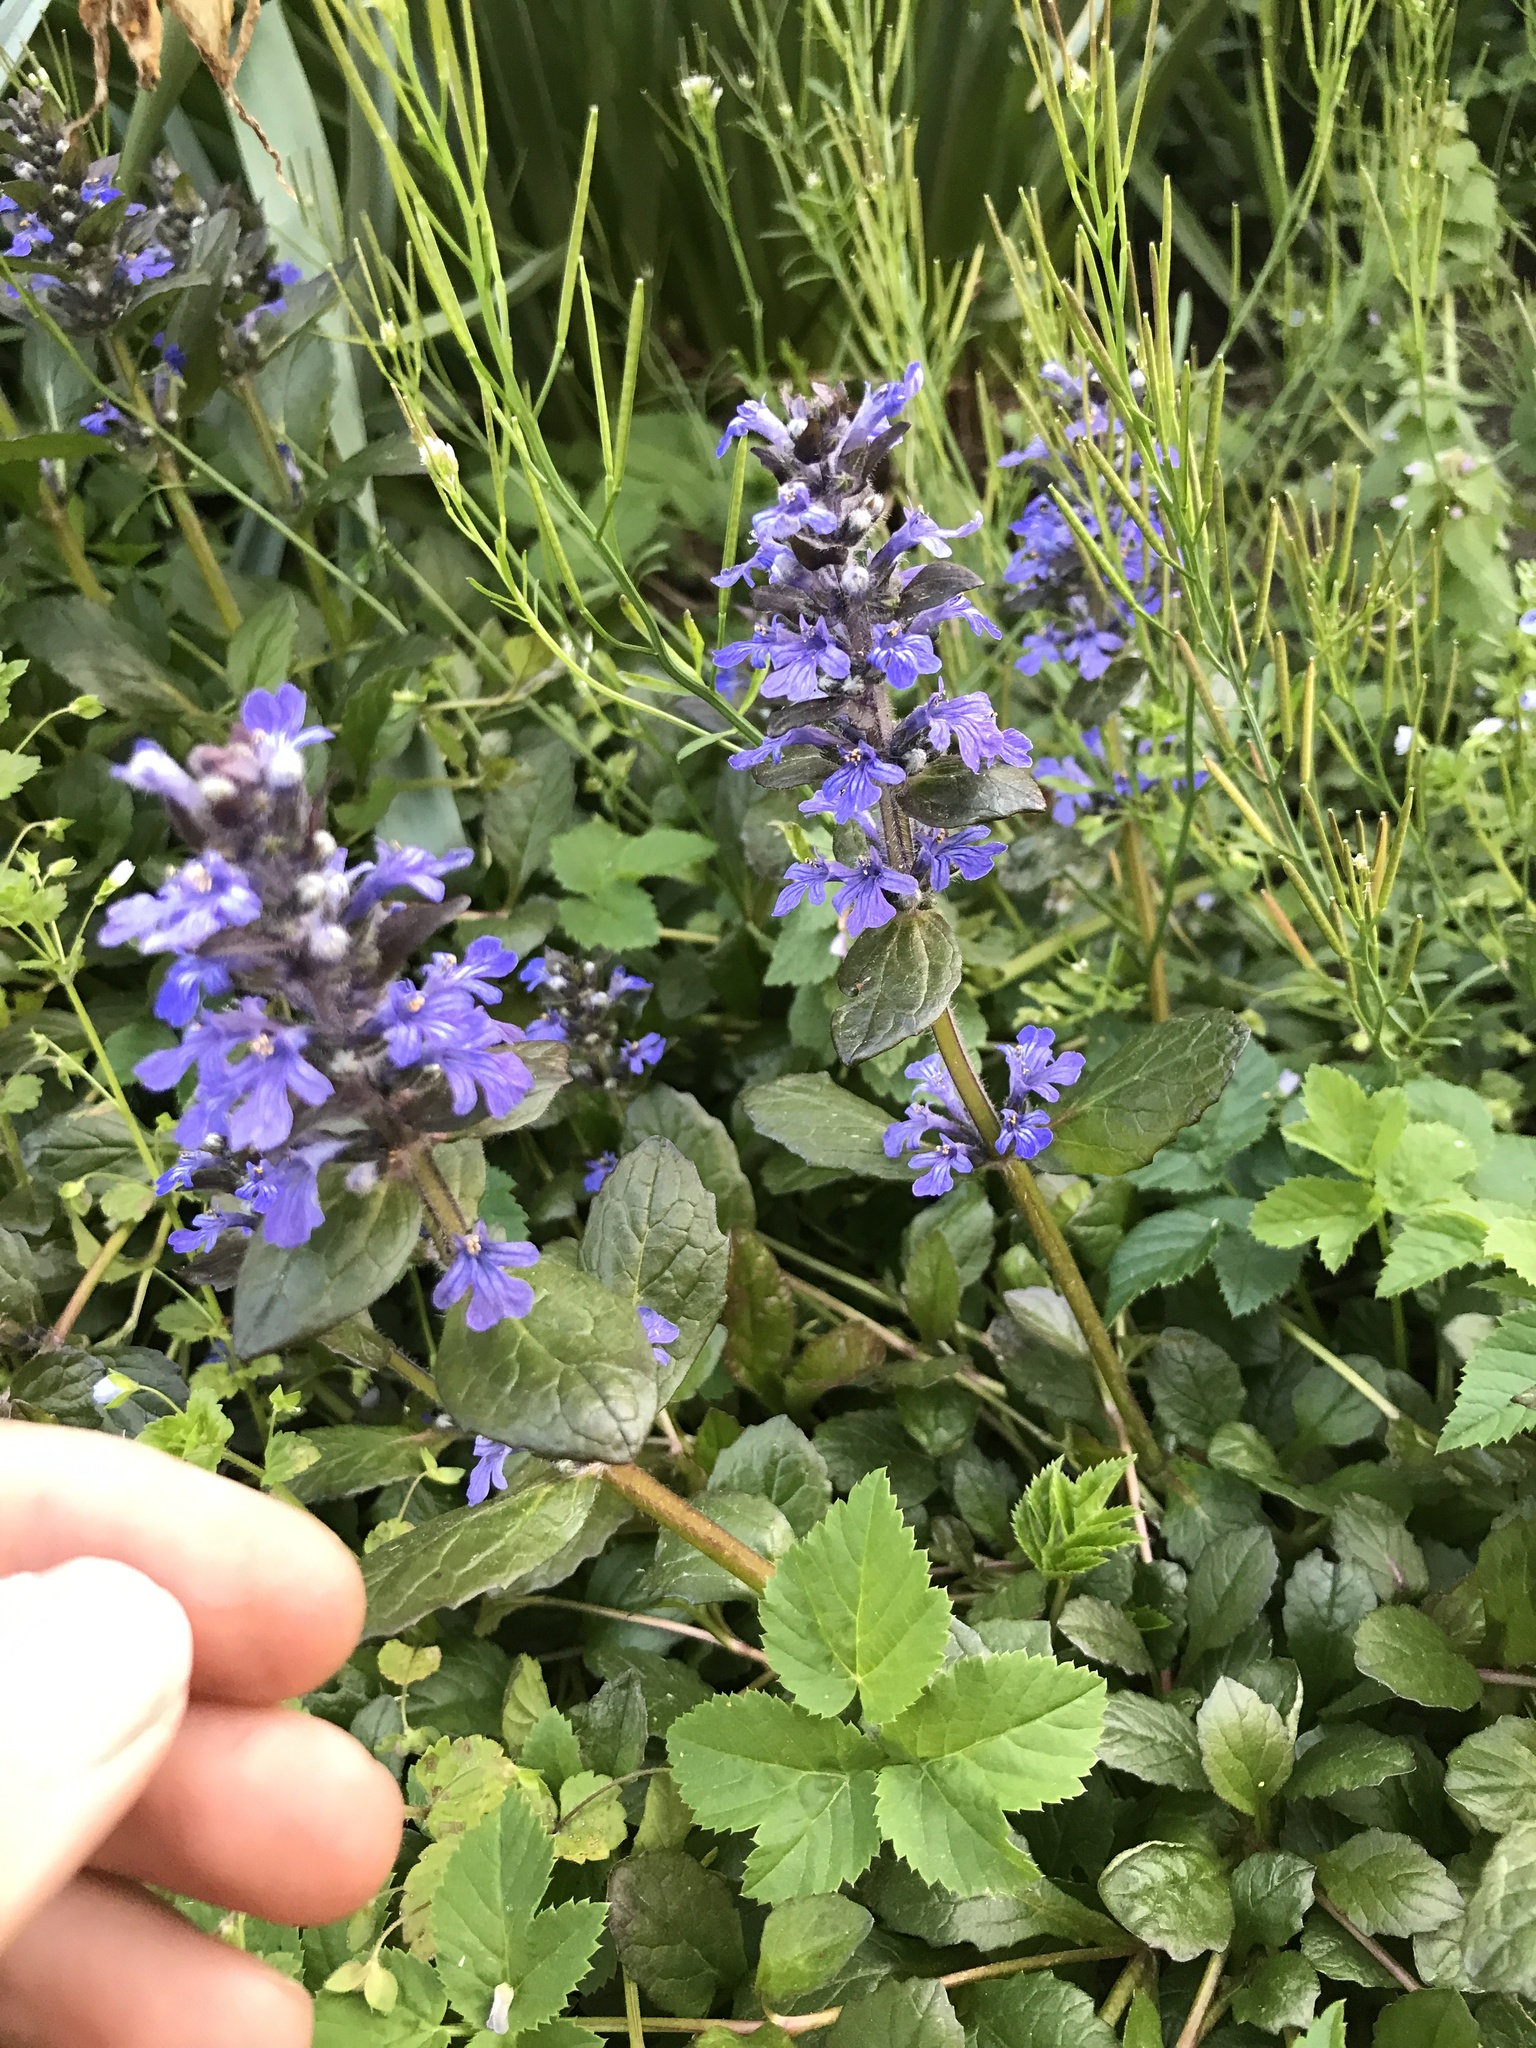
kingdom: Plantae
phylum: Tracheophyta
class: Magnoliopsida
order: Lamiales
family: Lamiaceae
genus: Ajuga
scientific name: Ajuga reptans
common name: Bugle
